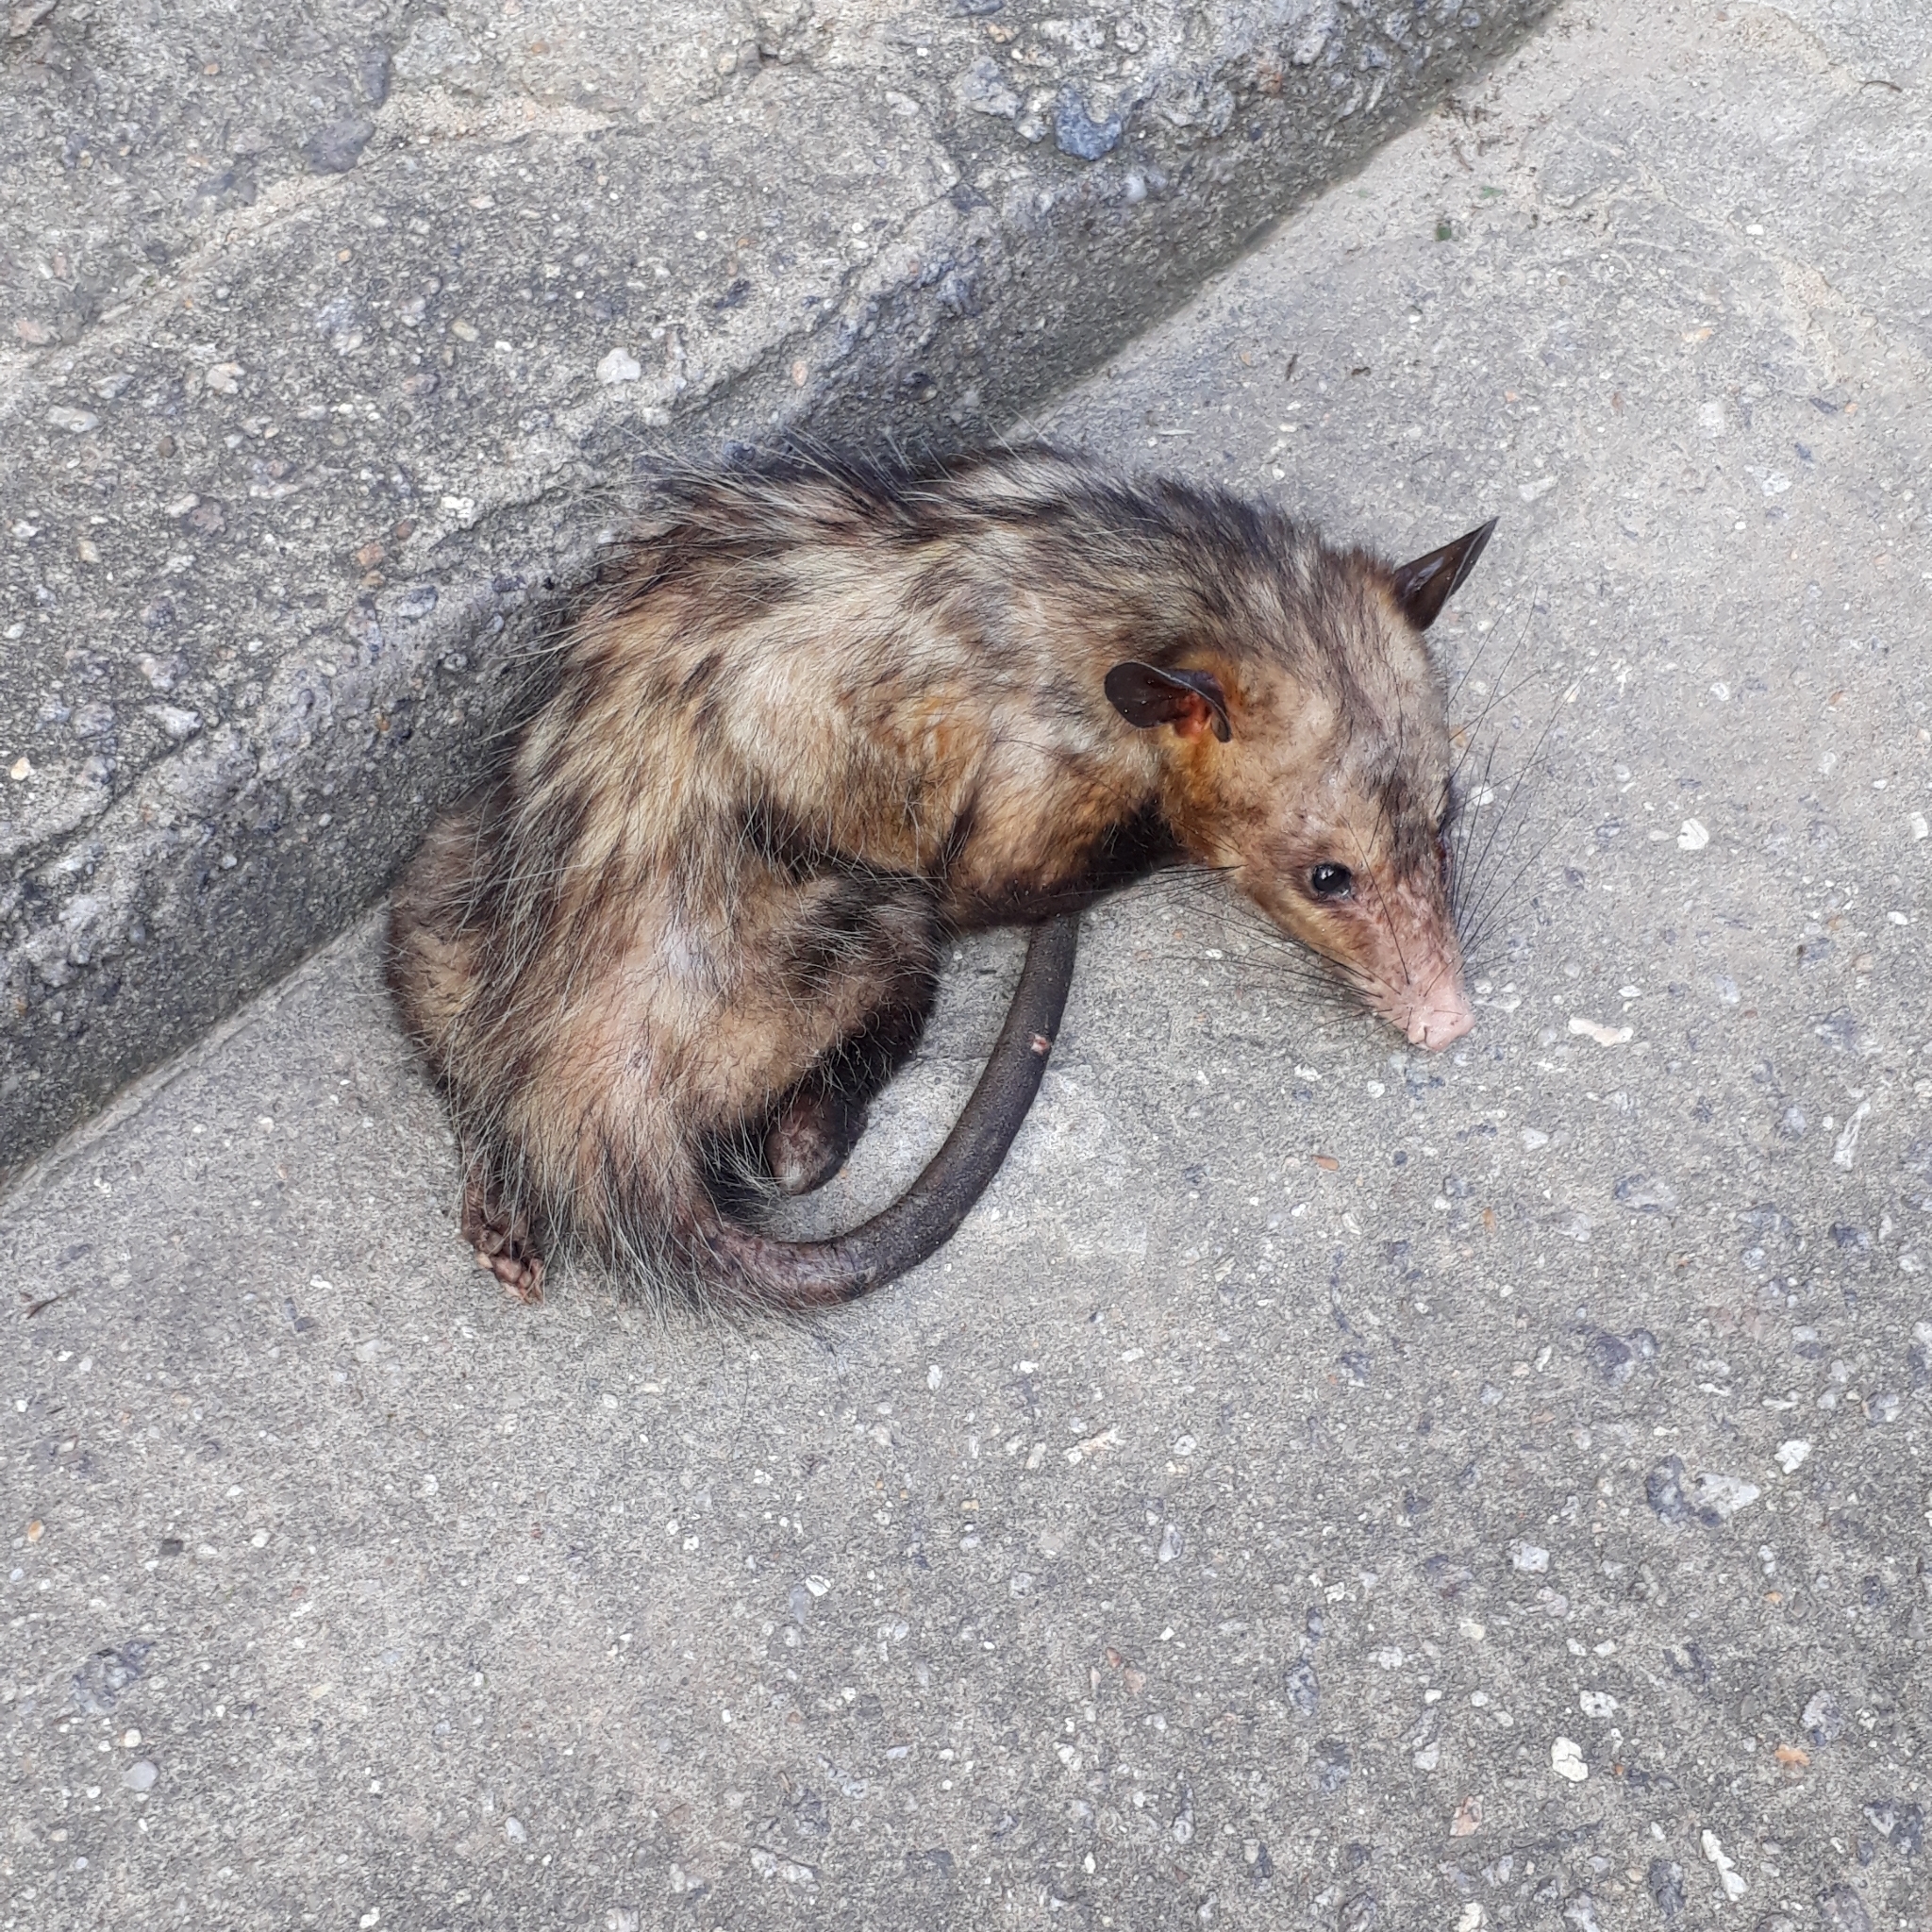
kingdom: Animalia
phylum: Chordata
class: Mammalia
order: Didelphimorphia
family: Didelphidae
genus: Didelphis
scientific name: Didelphis aurita
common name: Big-eared opossum
